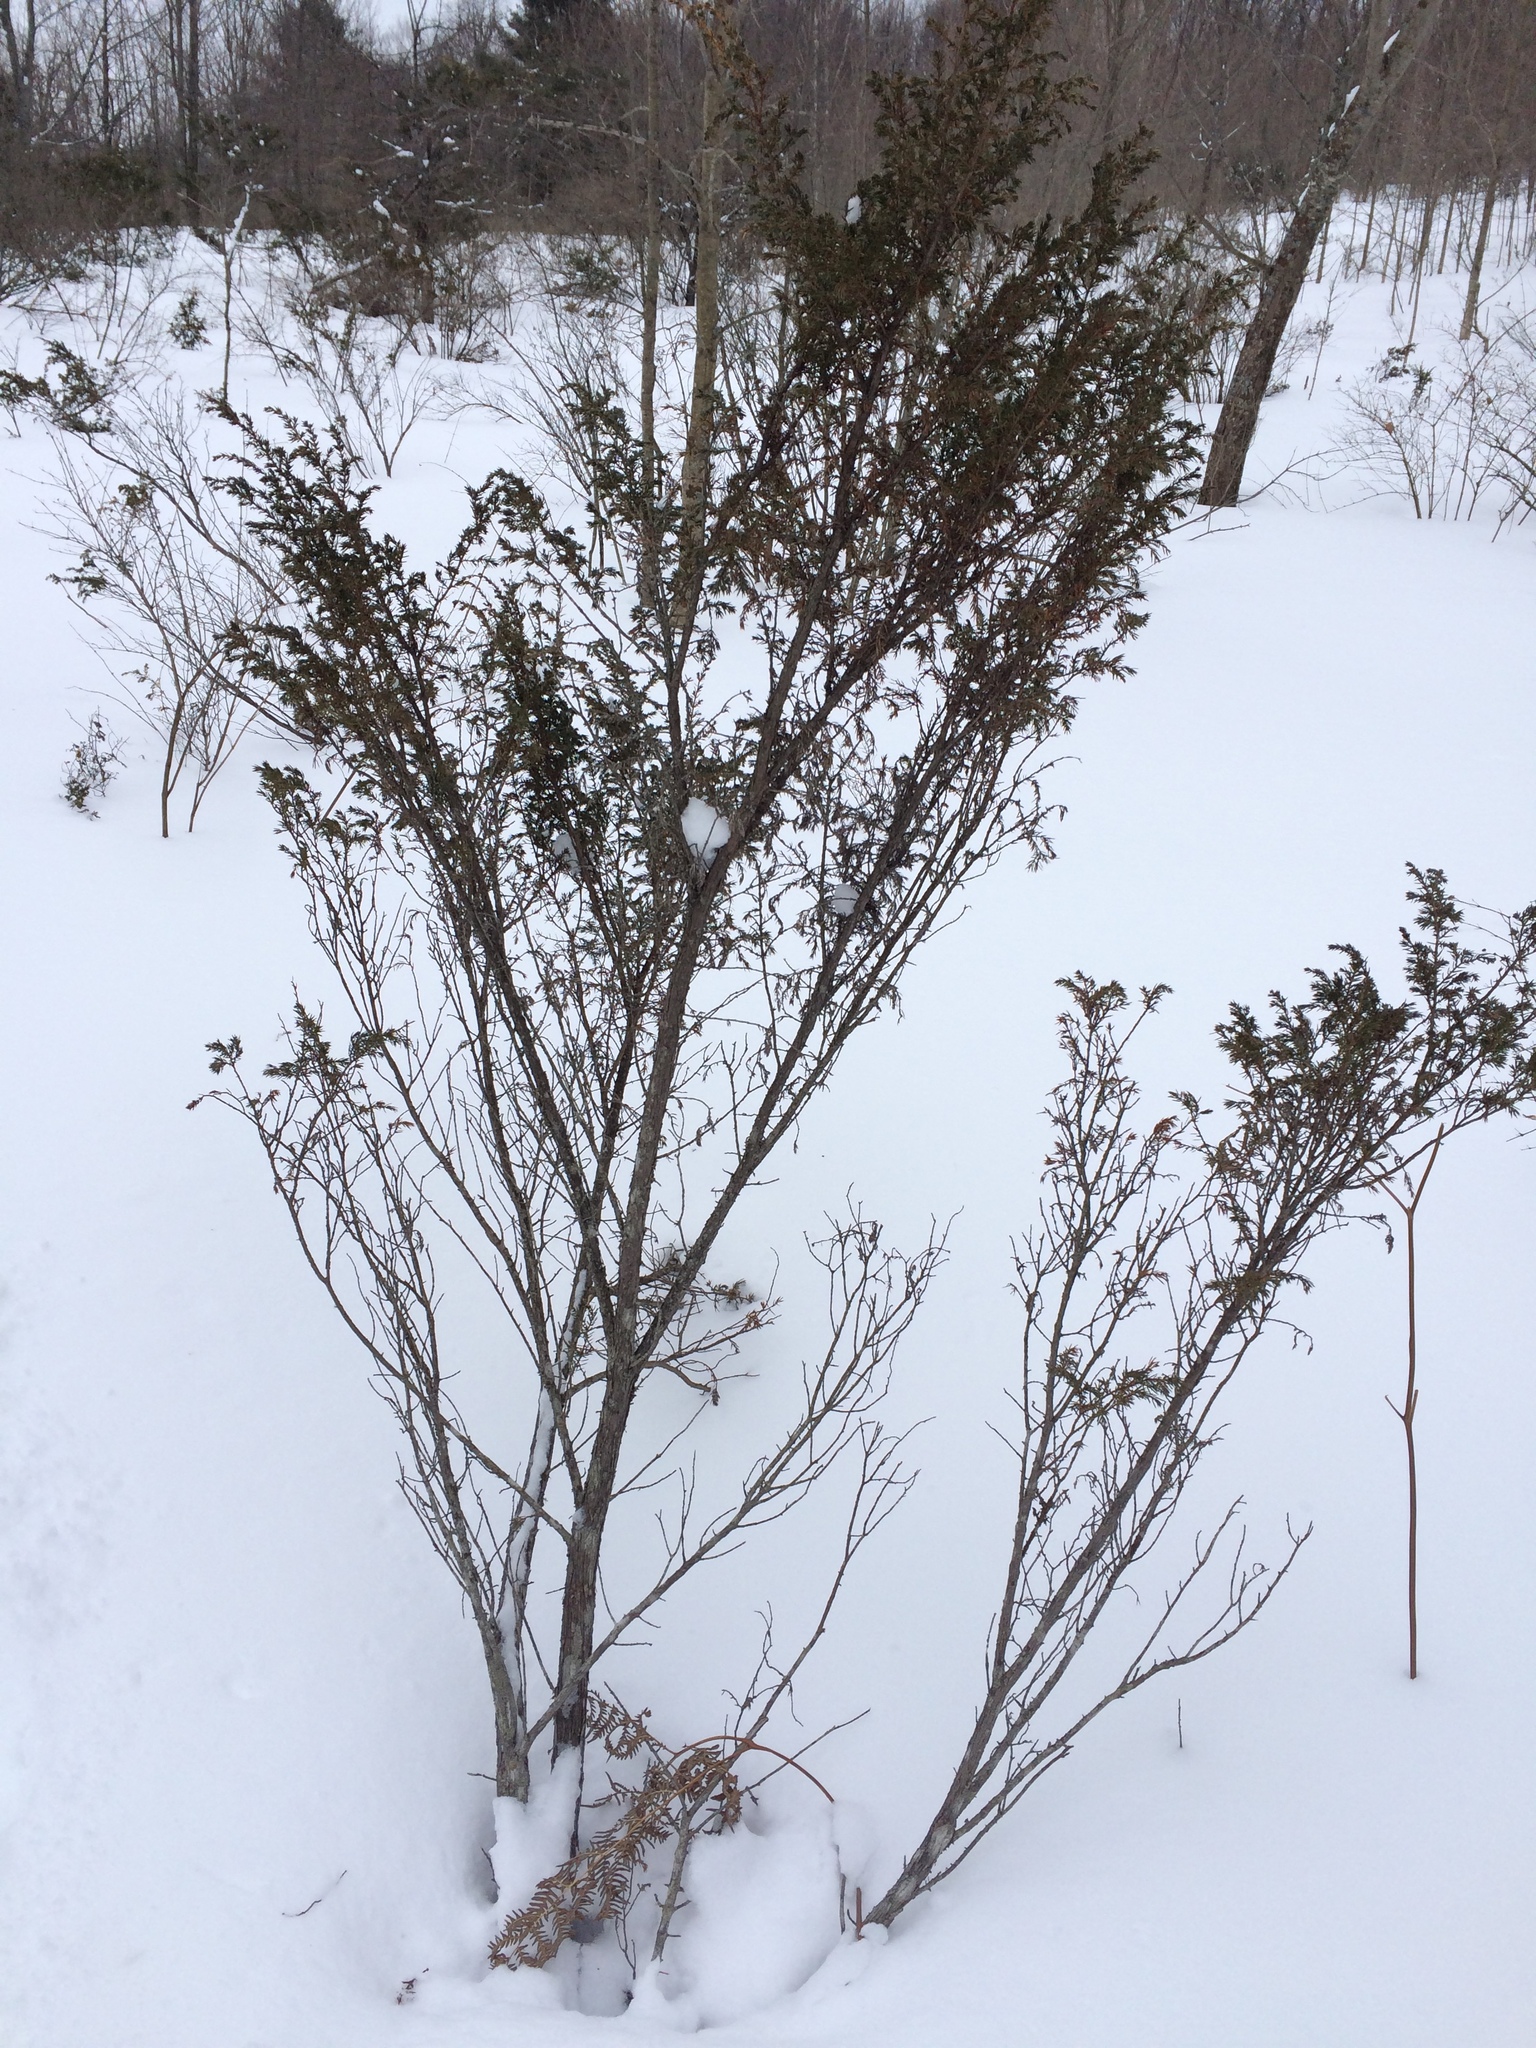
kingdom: Plantae
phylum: Tracheophyta
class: Pinopsida
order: Pinales
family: Cupressaceae
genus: Juniperus
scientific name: Juniperus communis
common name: Common juniper
